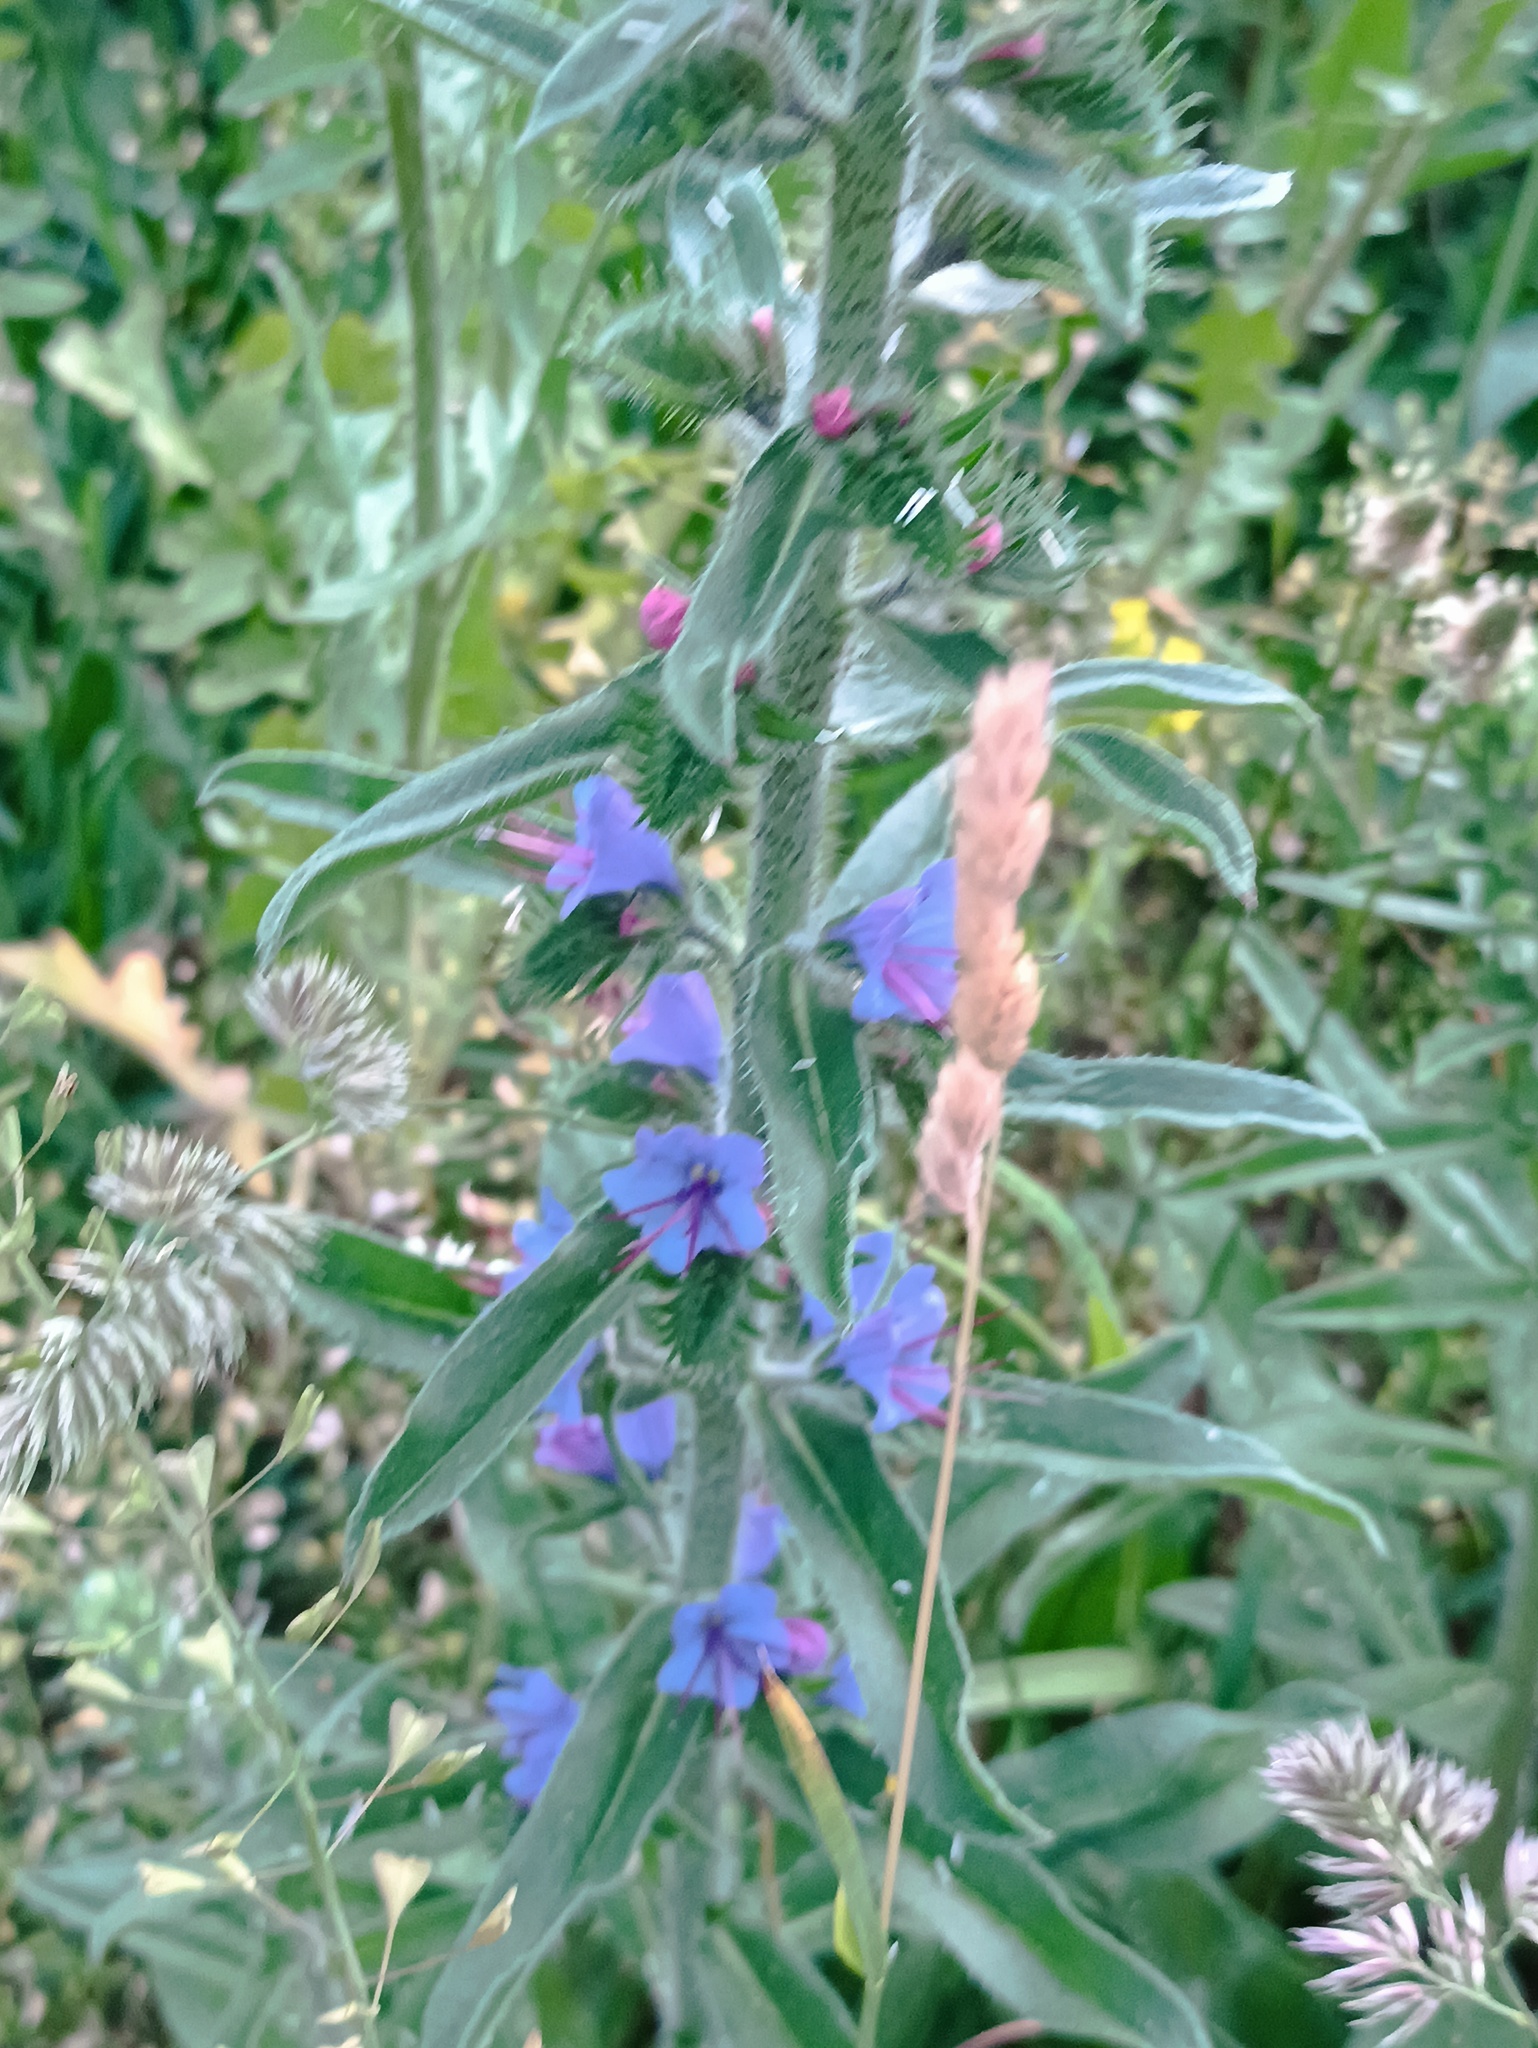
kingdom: Plantae
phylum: Tracheophyta
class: Magnoliopsida
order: Boraginales
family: Boraginaceae
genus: Echium
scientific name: Echium vulgare
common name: Common viper's bugloss
